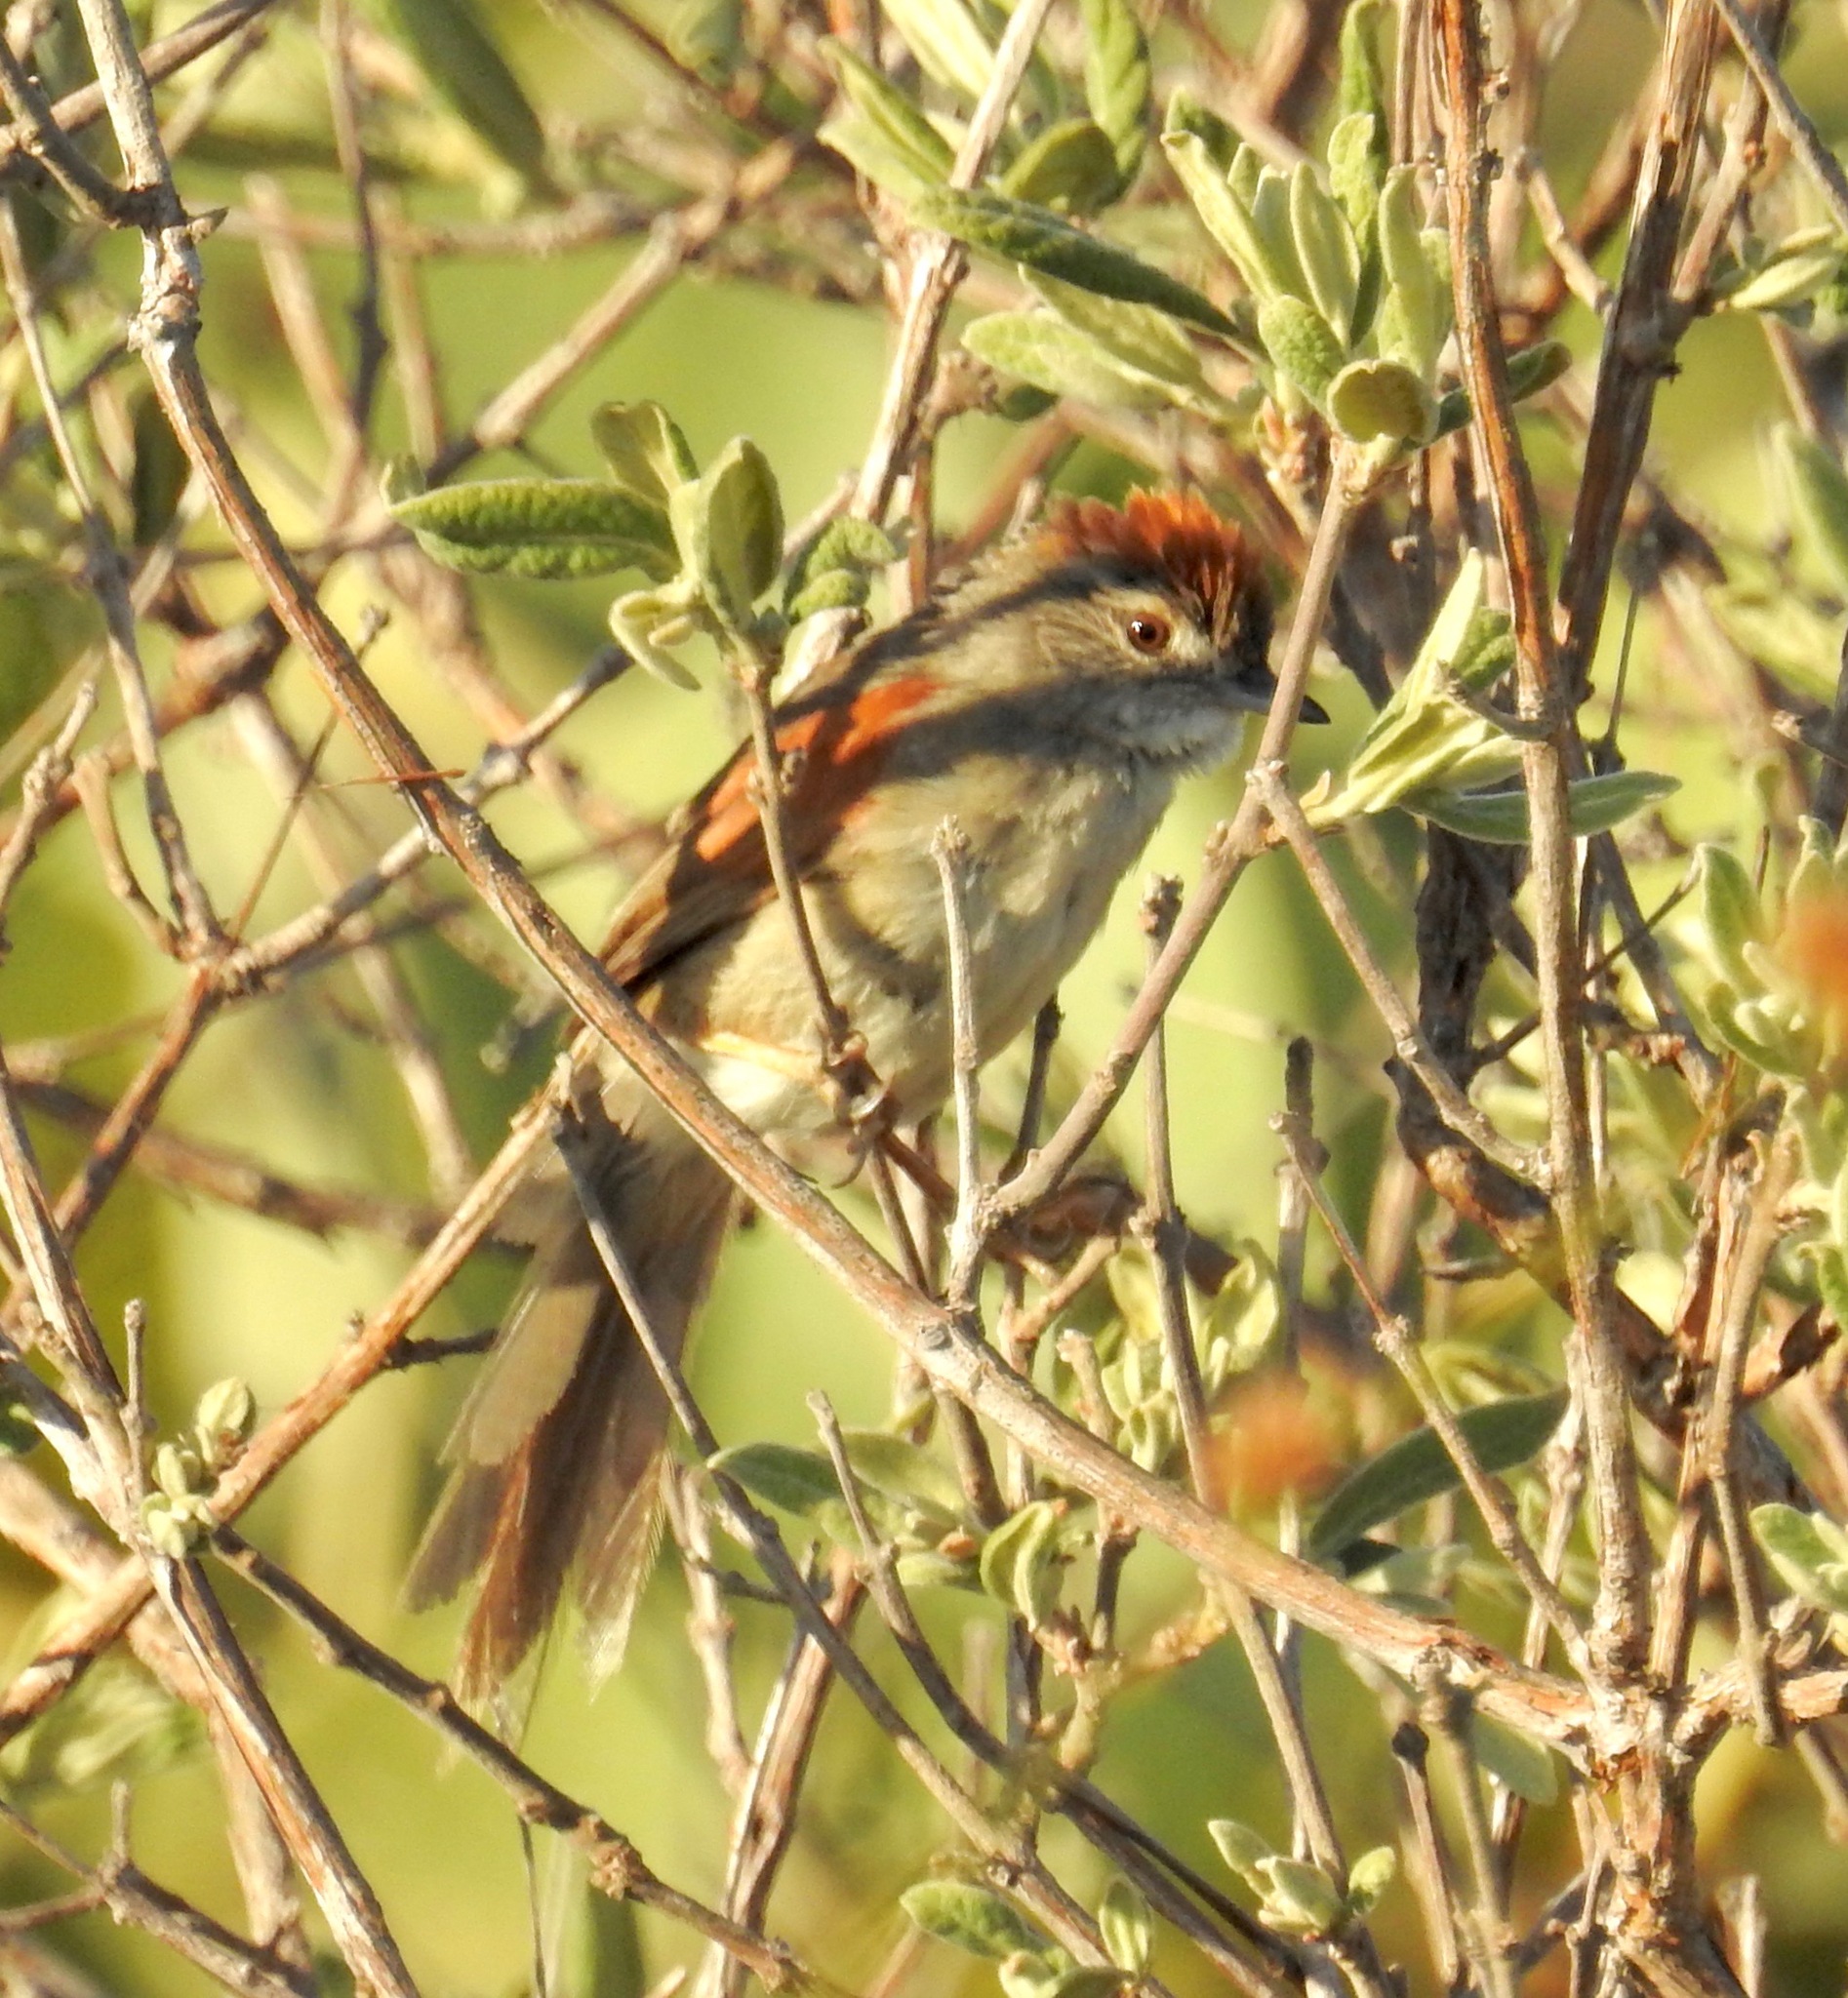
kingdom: Animalia
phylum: Chordata
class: Aves
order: Passeriformes
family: Furnariidae
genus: Synallaxis
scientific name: Synallaxis albescens
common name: Pale-breasted spinetail
